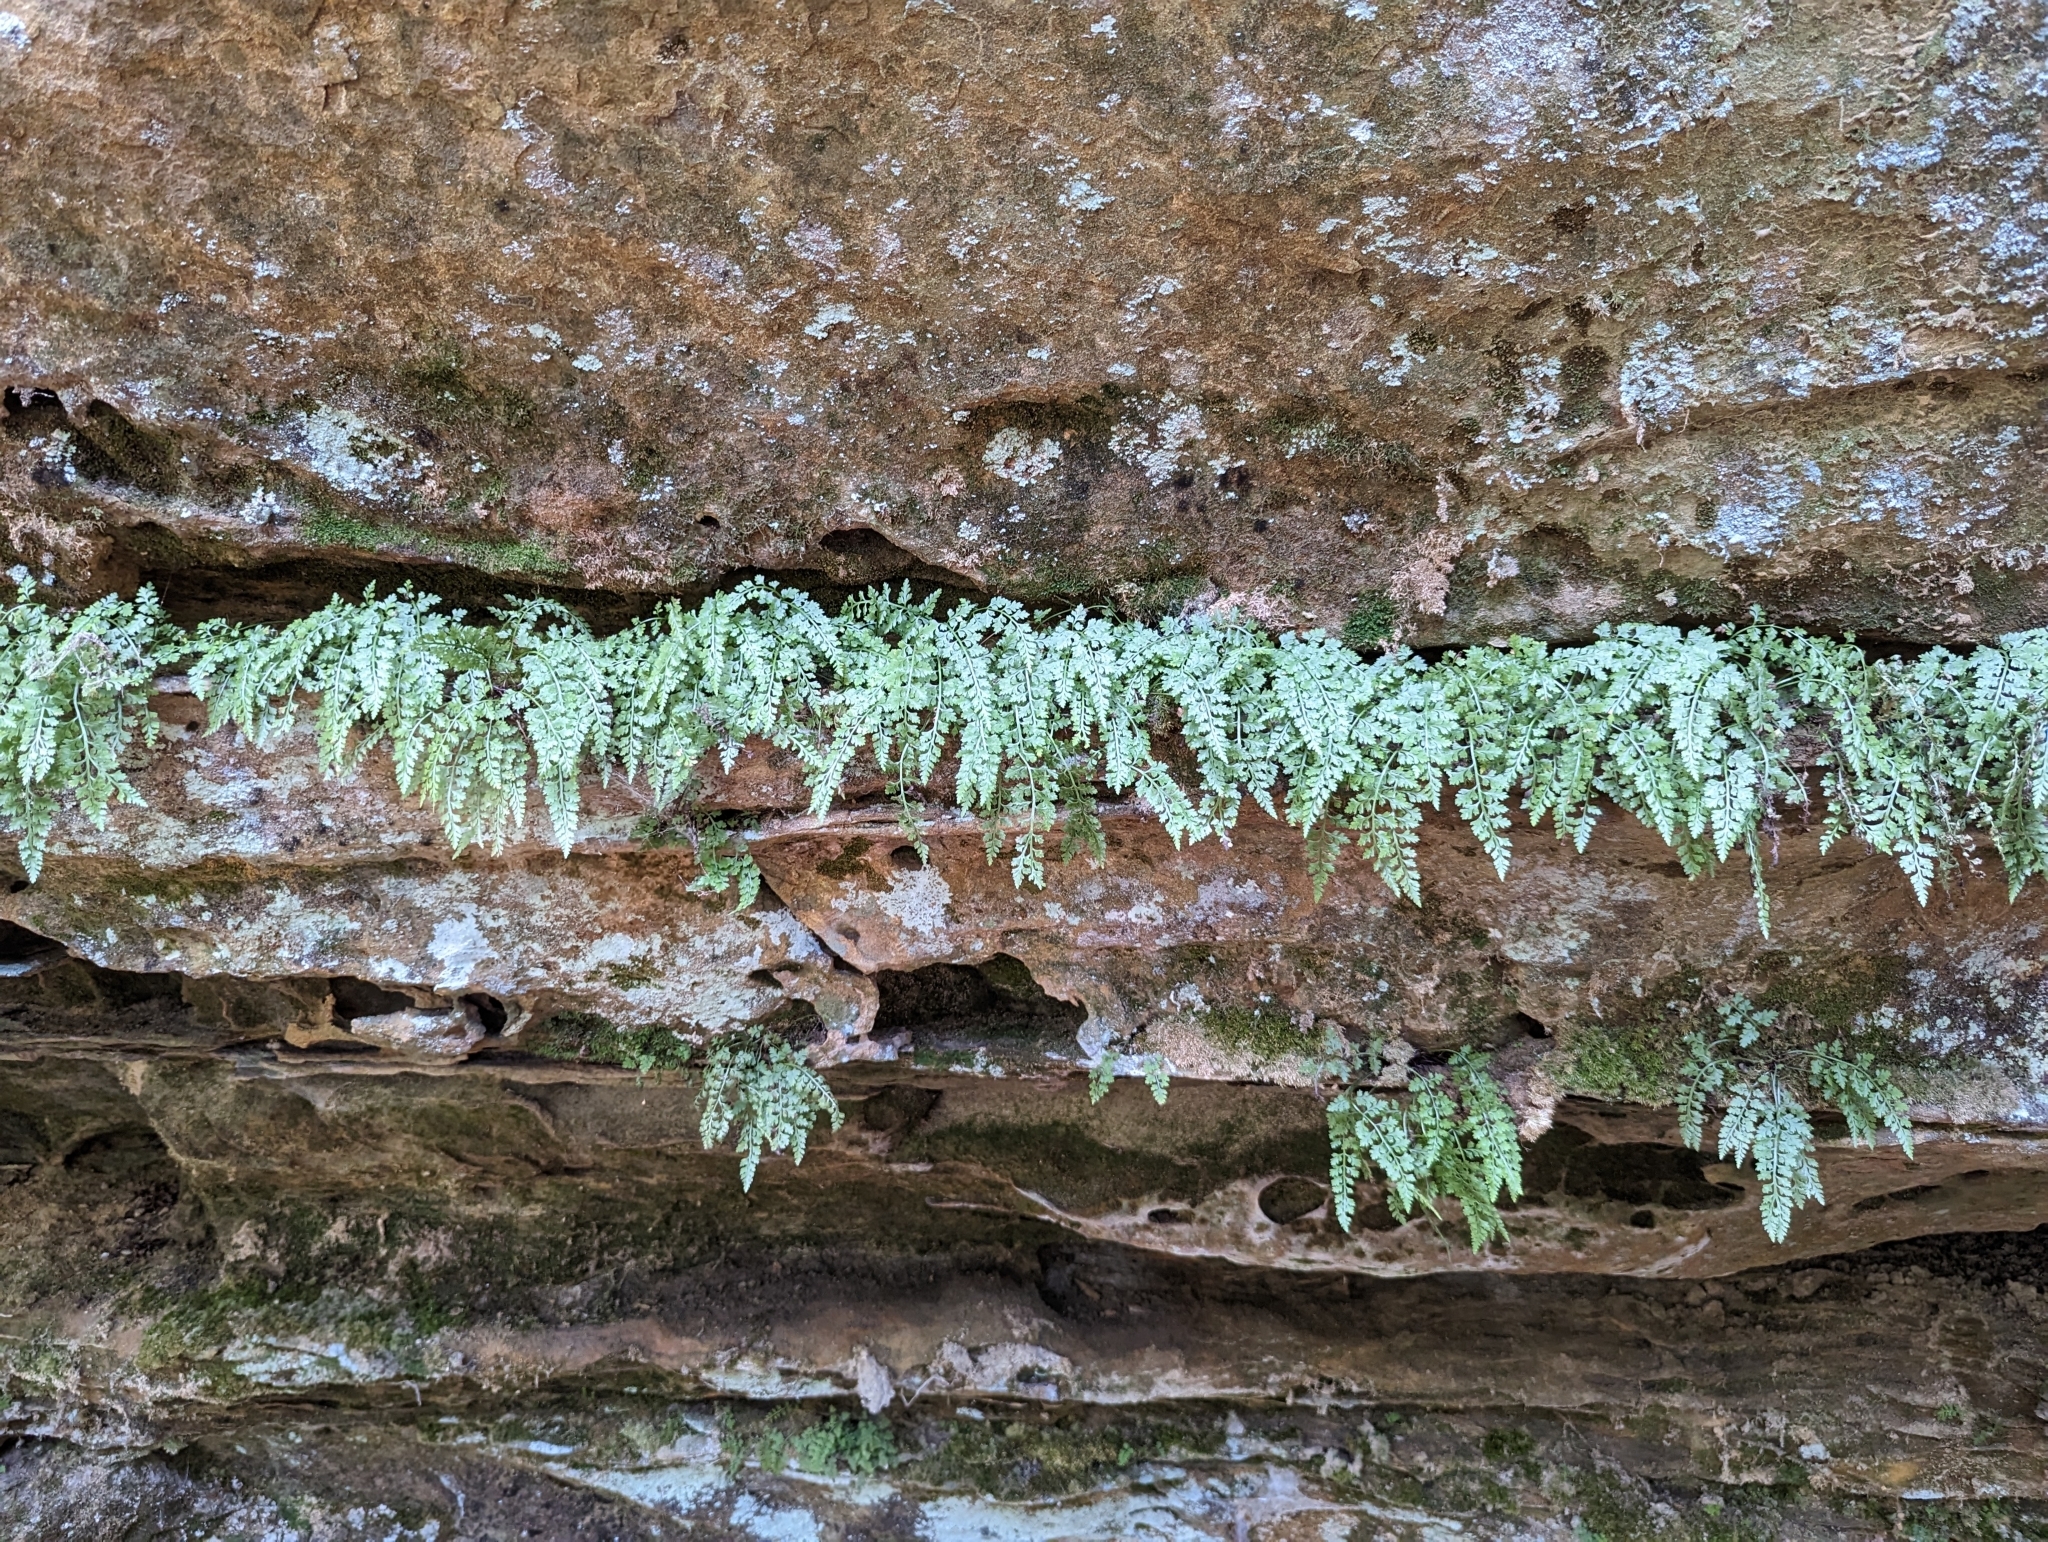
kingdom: Plantae
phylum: Tracheophyta
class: Polypodiopsida
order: Polypodiales
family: Aspleniaceae
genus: Asplenium
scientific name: Asplenium montanum
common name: Mountain spleenwort
